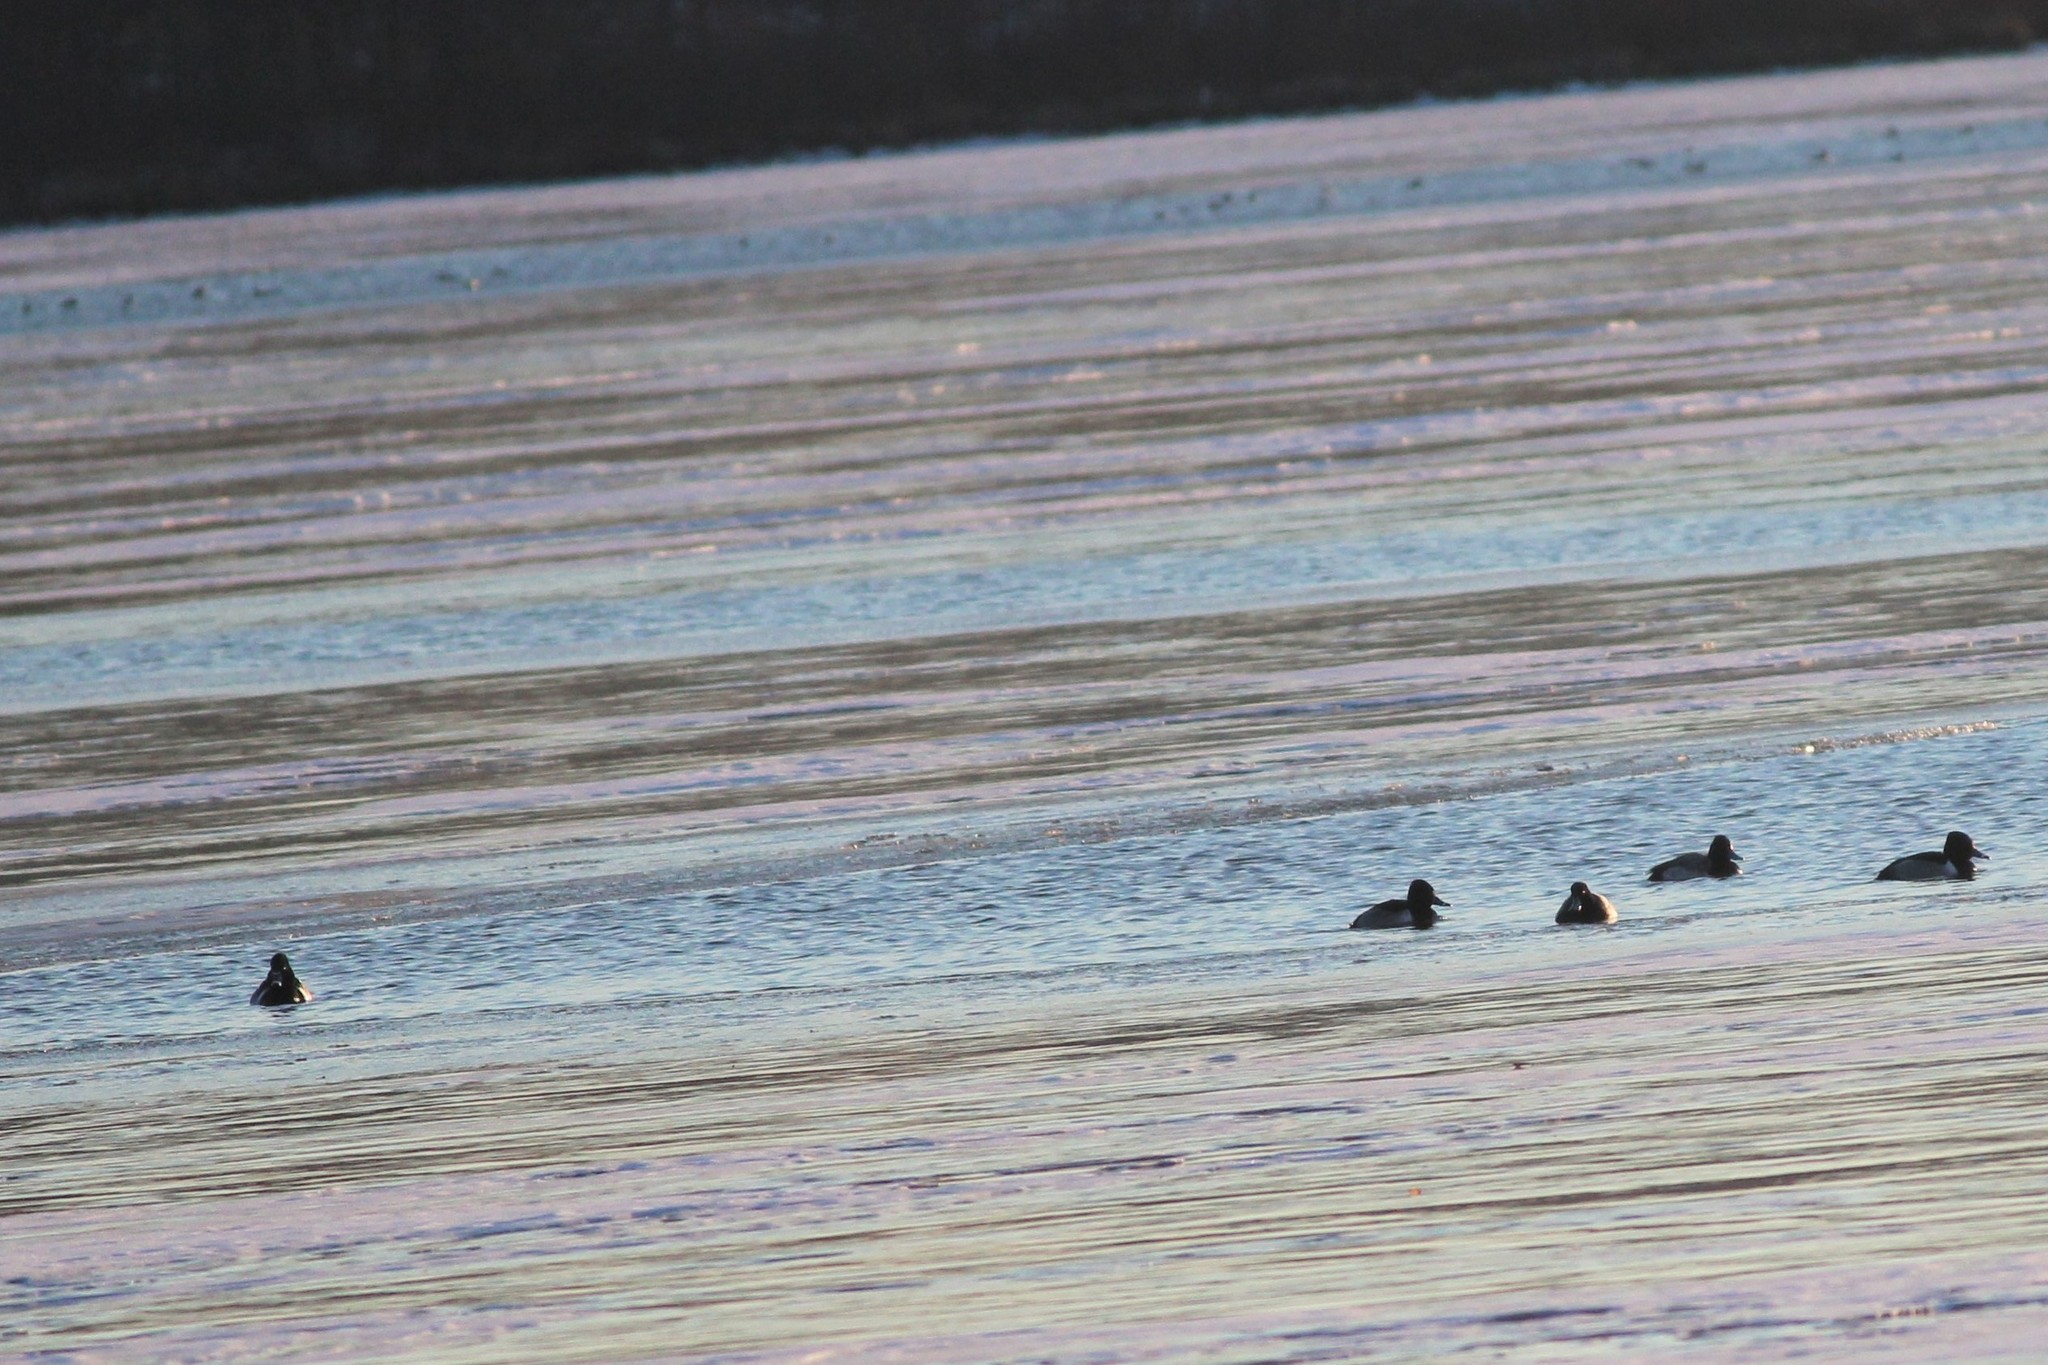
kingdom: Animalia
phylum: Chordata
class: Aves
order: Anseriformes
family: Anatidae
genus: Aythya
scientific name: Aythya collaris
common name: Ring-necked duck
